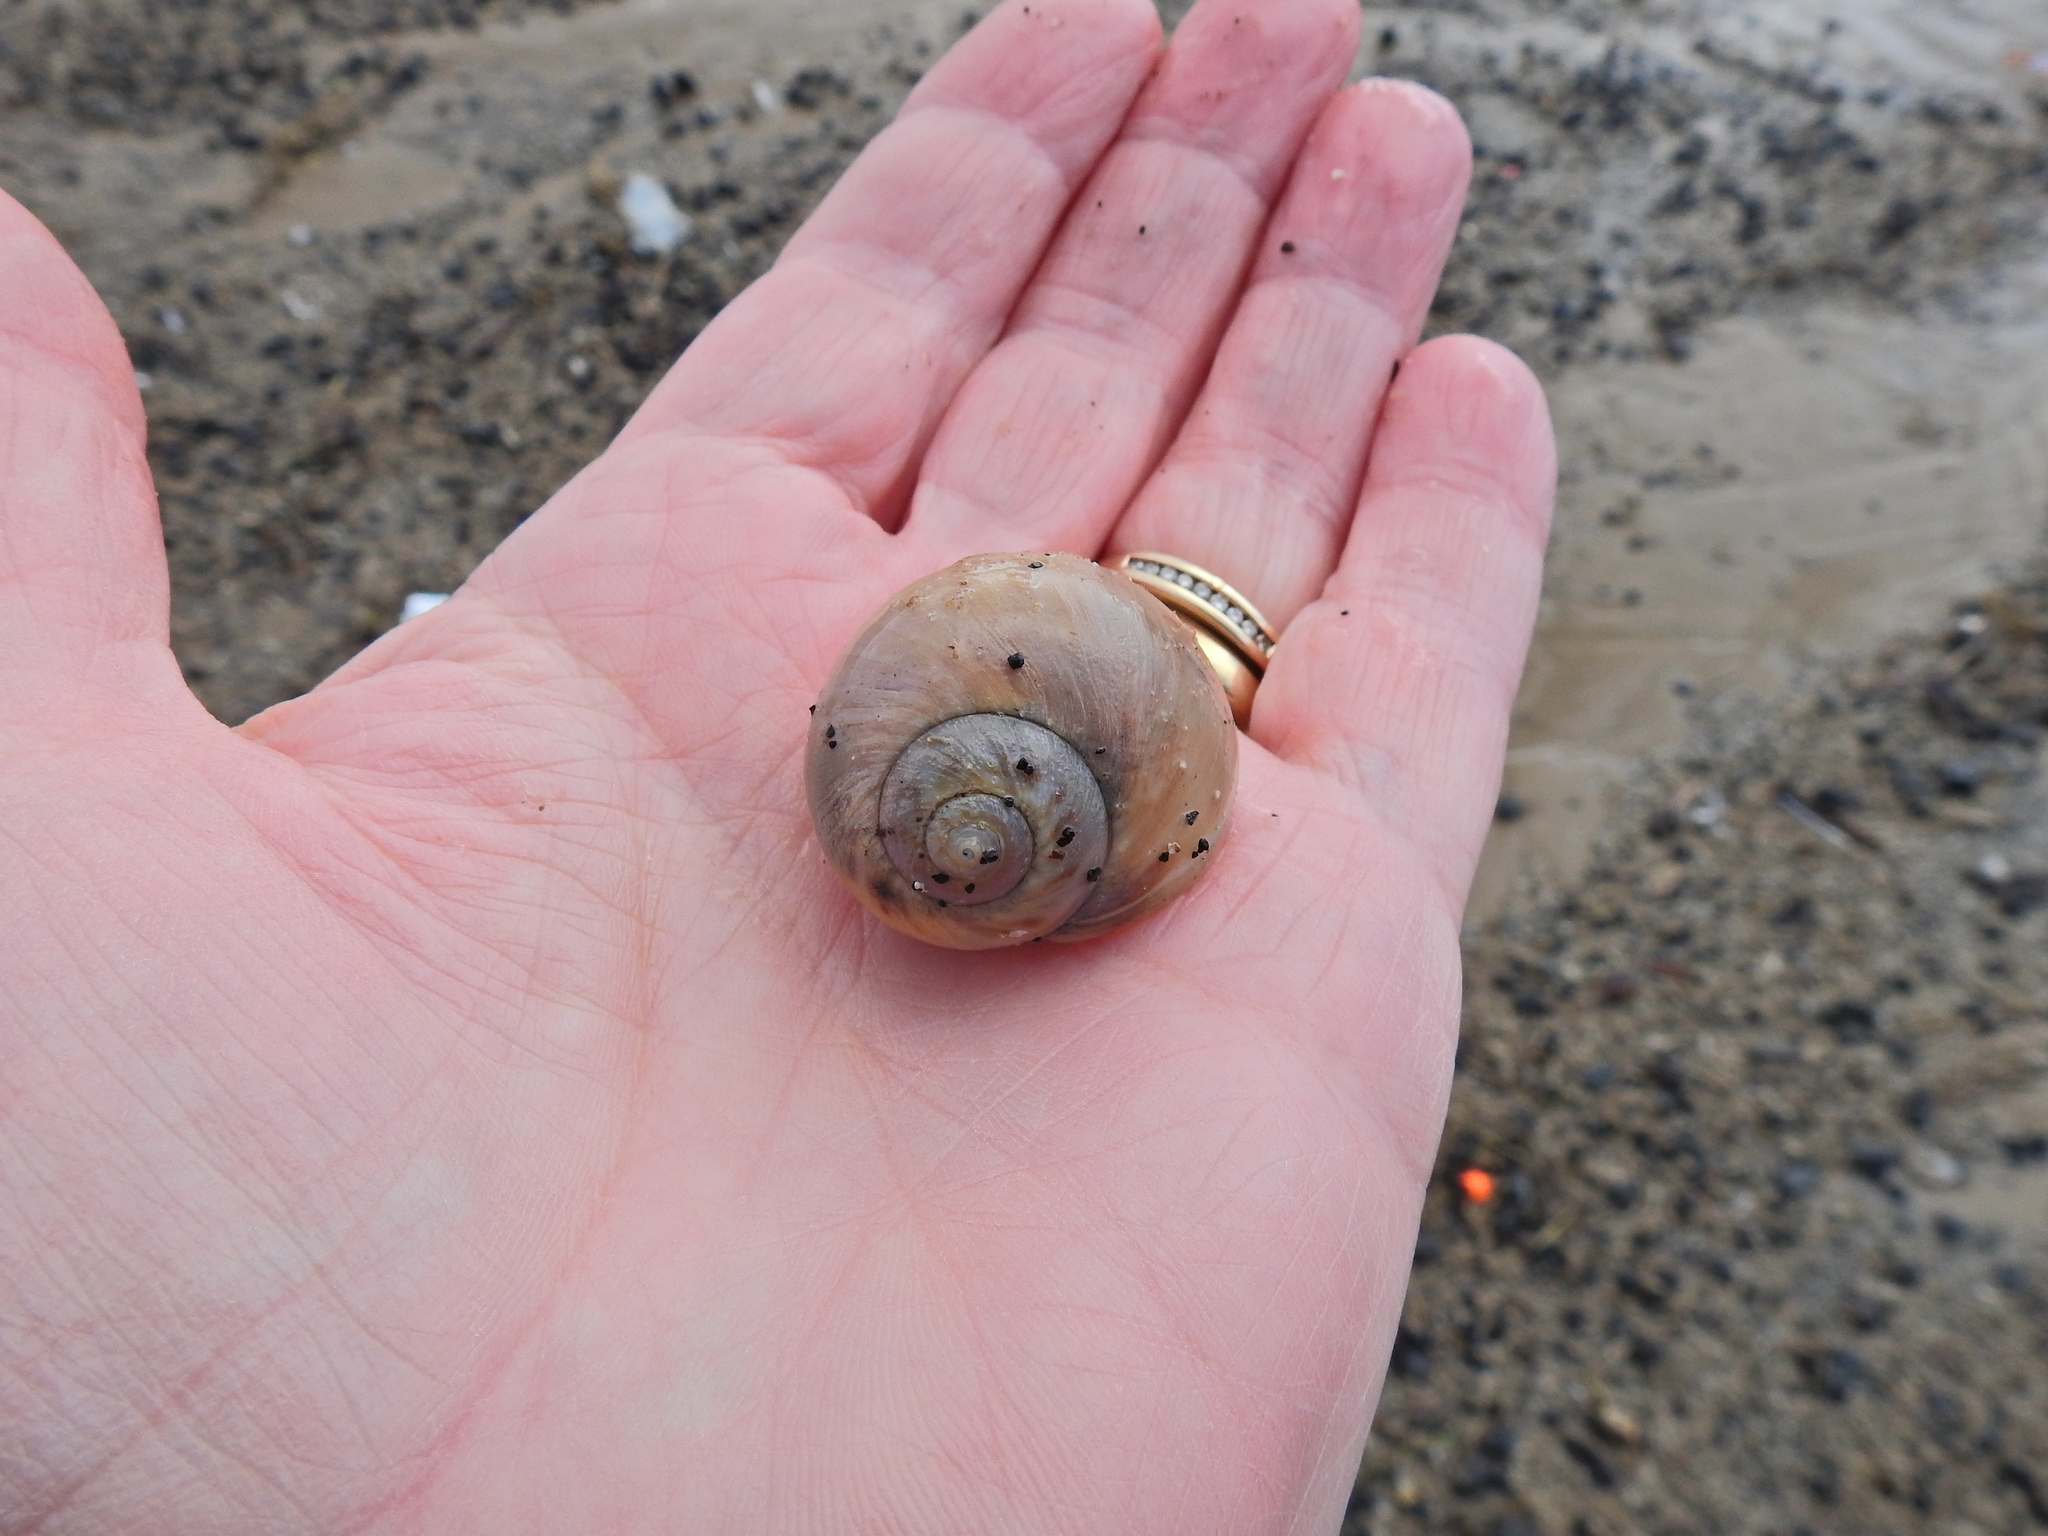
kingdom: Animalia
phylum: Mollusca
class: Gastropoda
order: Littorinimorpha
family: Naticidae
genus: Euspira
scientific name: Euspira catena
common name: Necklace shell
